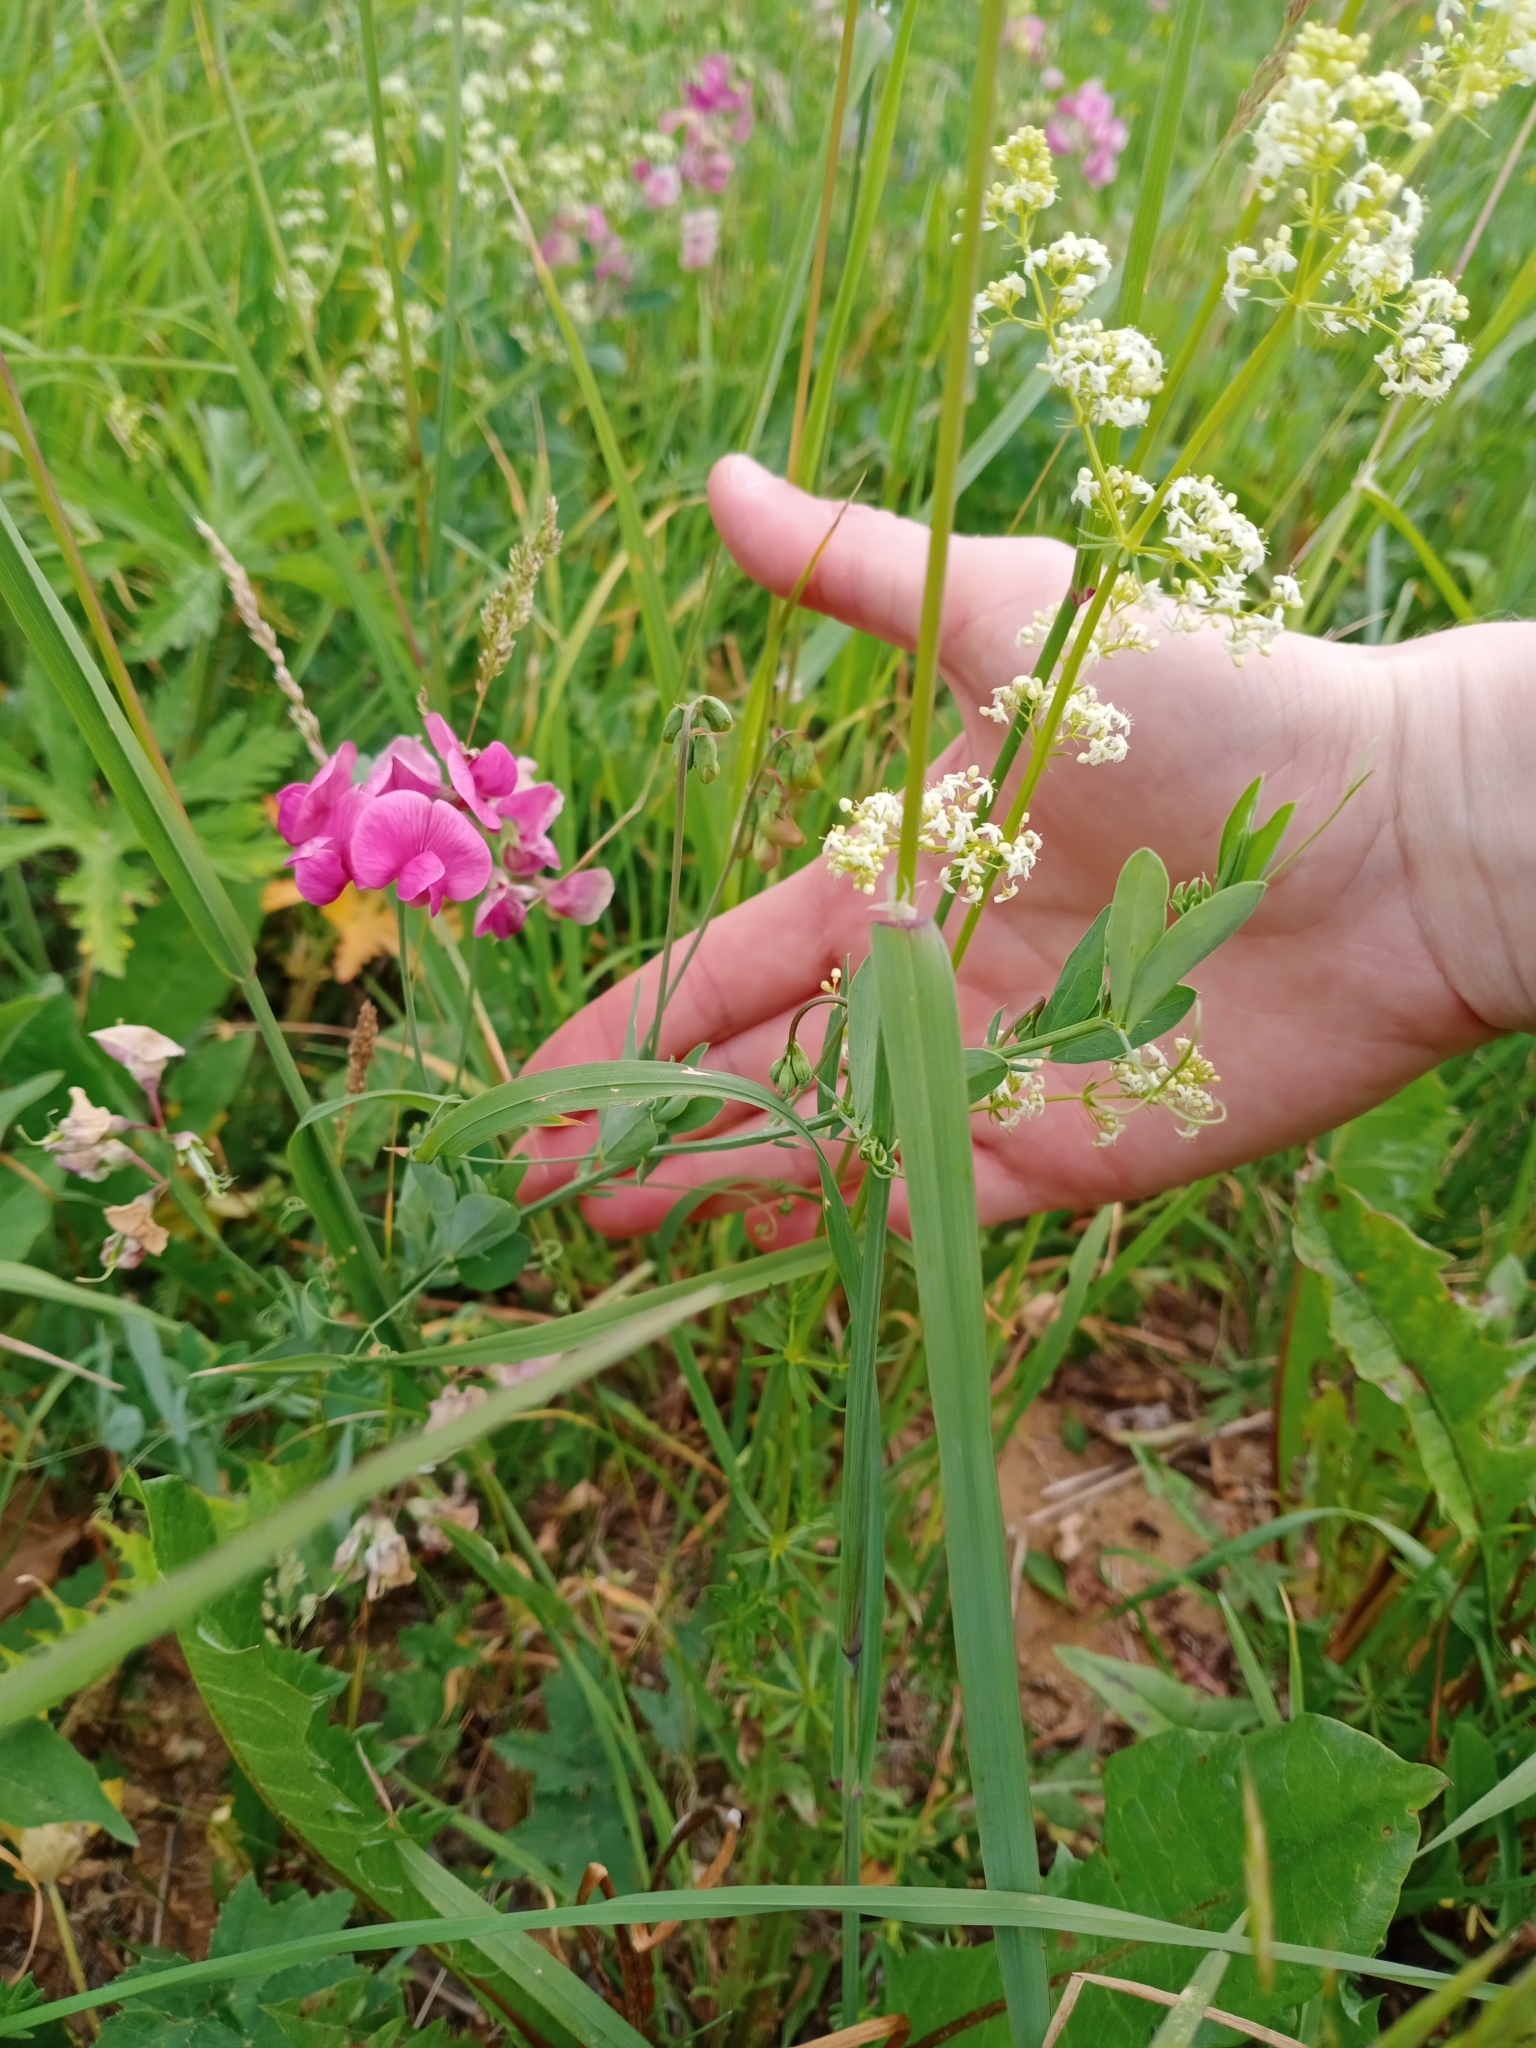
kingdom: Plantae
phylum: Tracheophyta
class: Magnoliopsida
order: Fabales
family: Fabaceae
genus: Lathyrus
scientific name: Lathyrus tuberosus
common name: Tuberous pea
